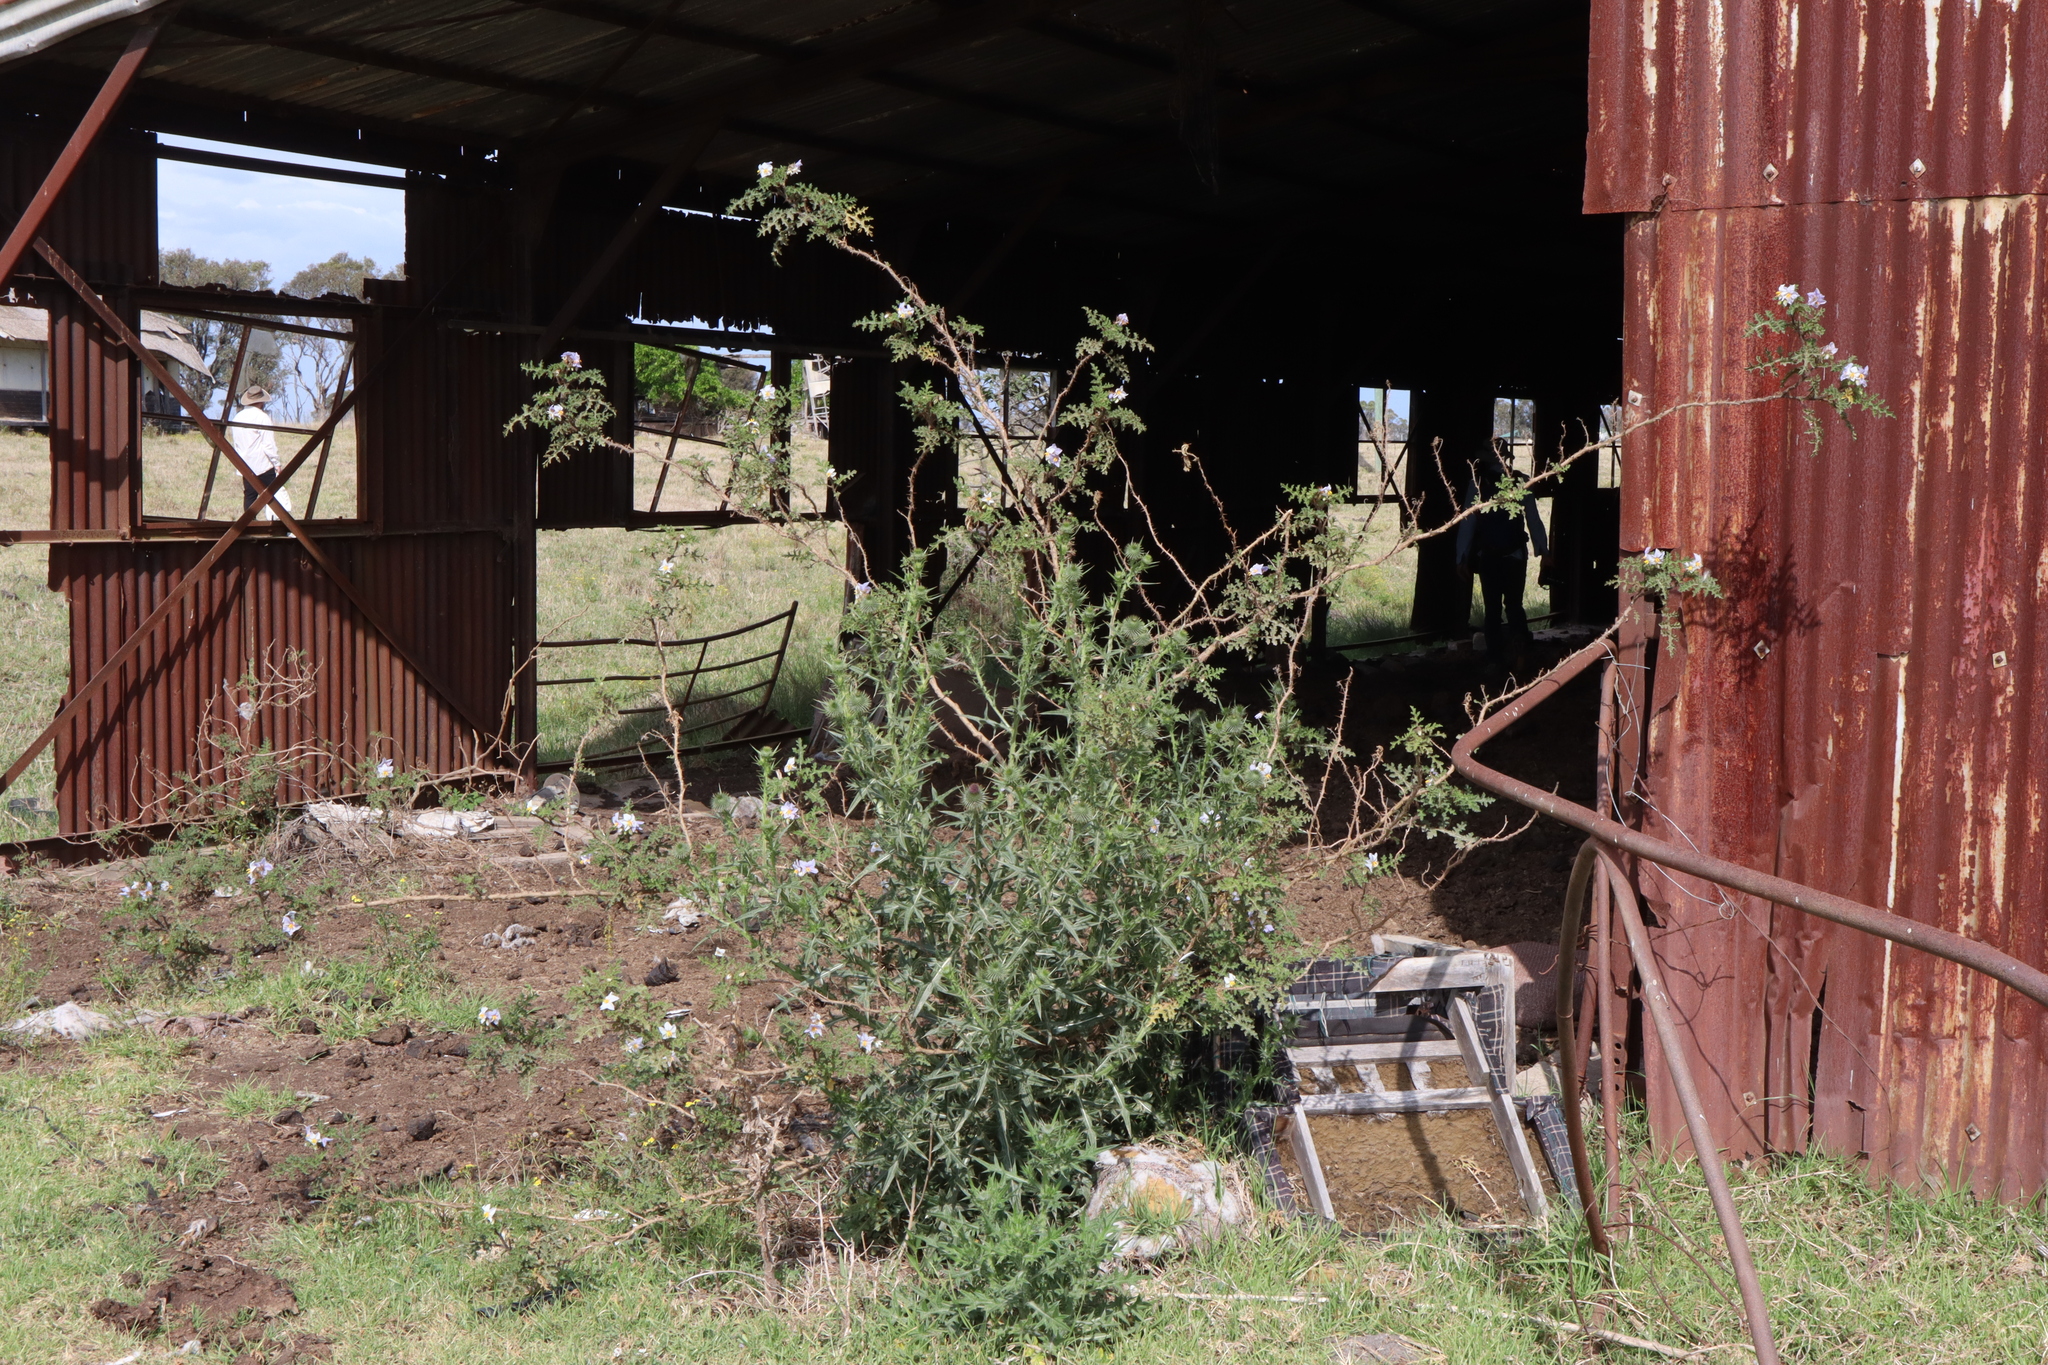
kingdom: Plantae
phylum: Tracheophyta
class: Magnoliopsida
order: Solanales
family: Solanaceae
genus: Solanum
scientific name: Solanum sisymbriifolium
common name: Red buffalo-bur
